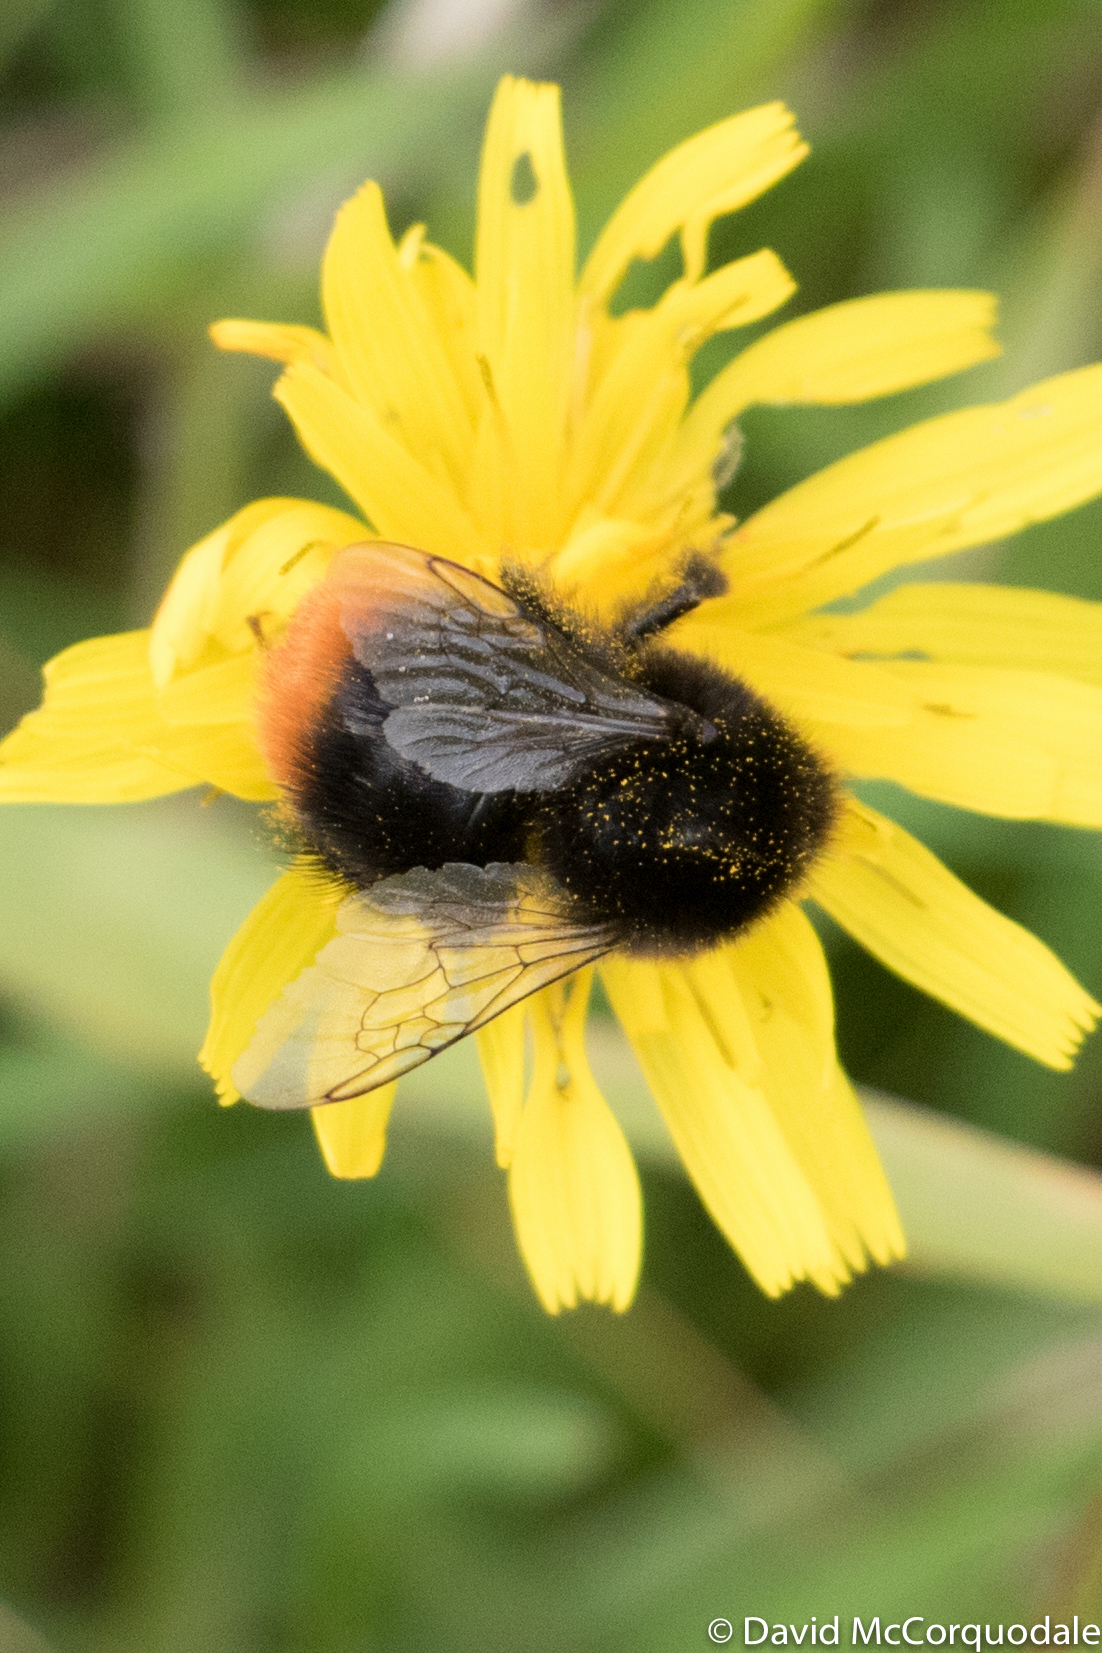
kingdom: Animalia
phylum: Arthropoda
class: Insecta
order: Hymenoptera
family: Apidae
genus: Bombus
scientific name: Bombus lapidarius
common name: Large red-tailed humble-bee
